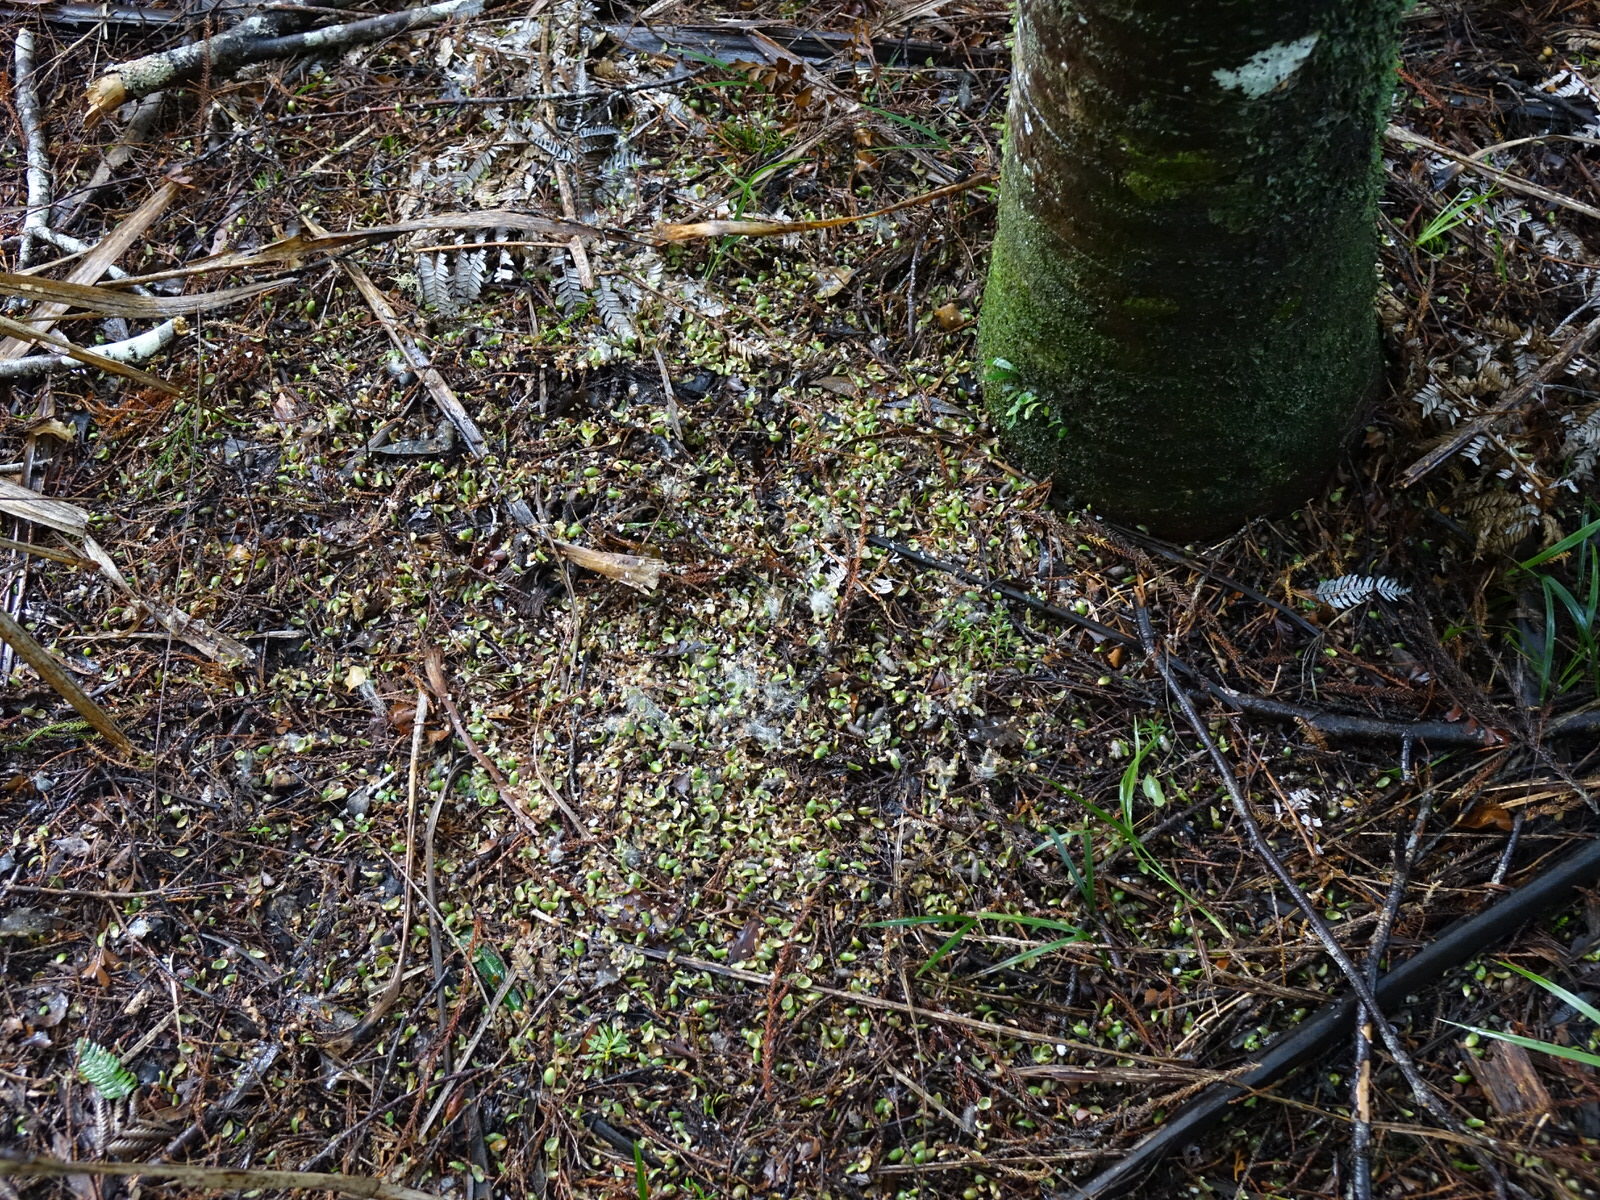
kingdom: Plantae
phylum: Tracheophyta
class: Liliopsida
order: Arecales
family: Arecaceae
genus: Rhopalostylis
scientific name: Rhopalostylis sapida
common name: Feather-duster palm
